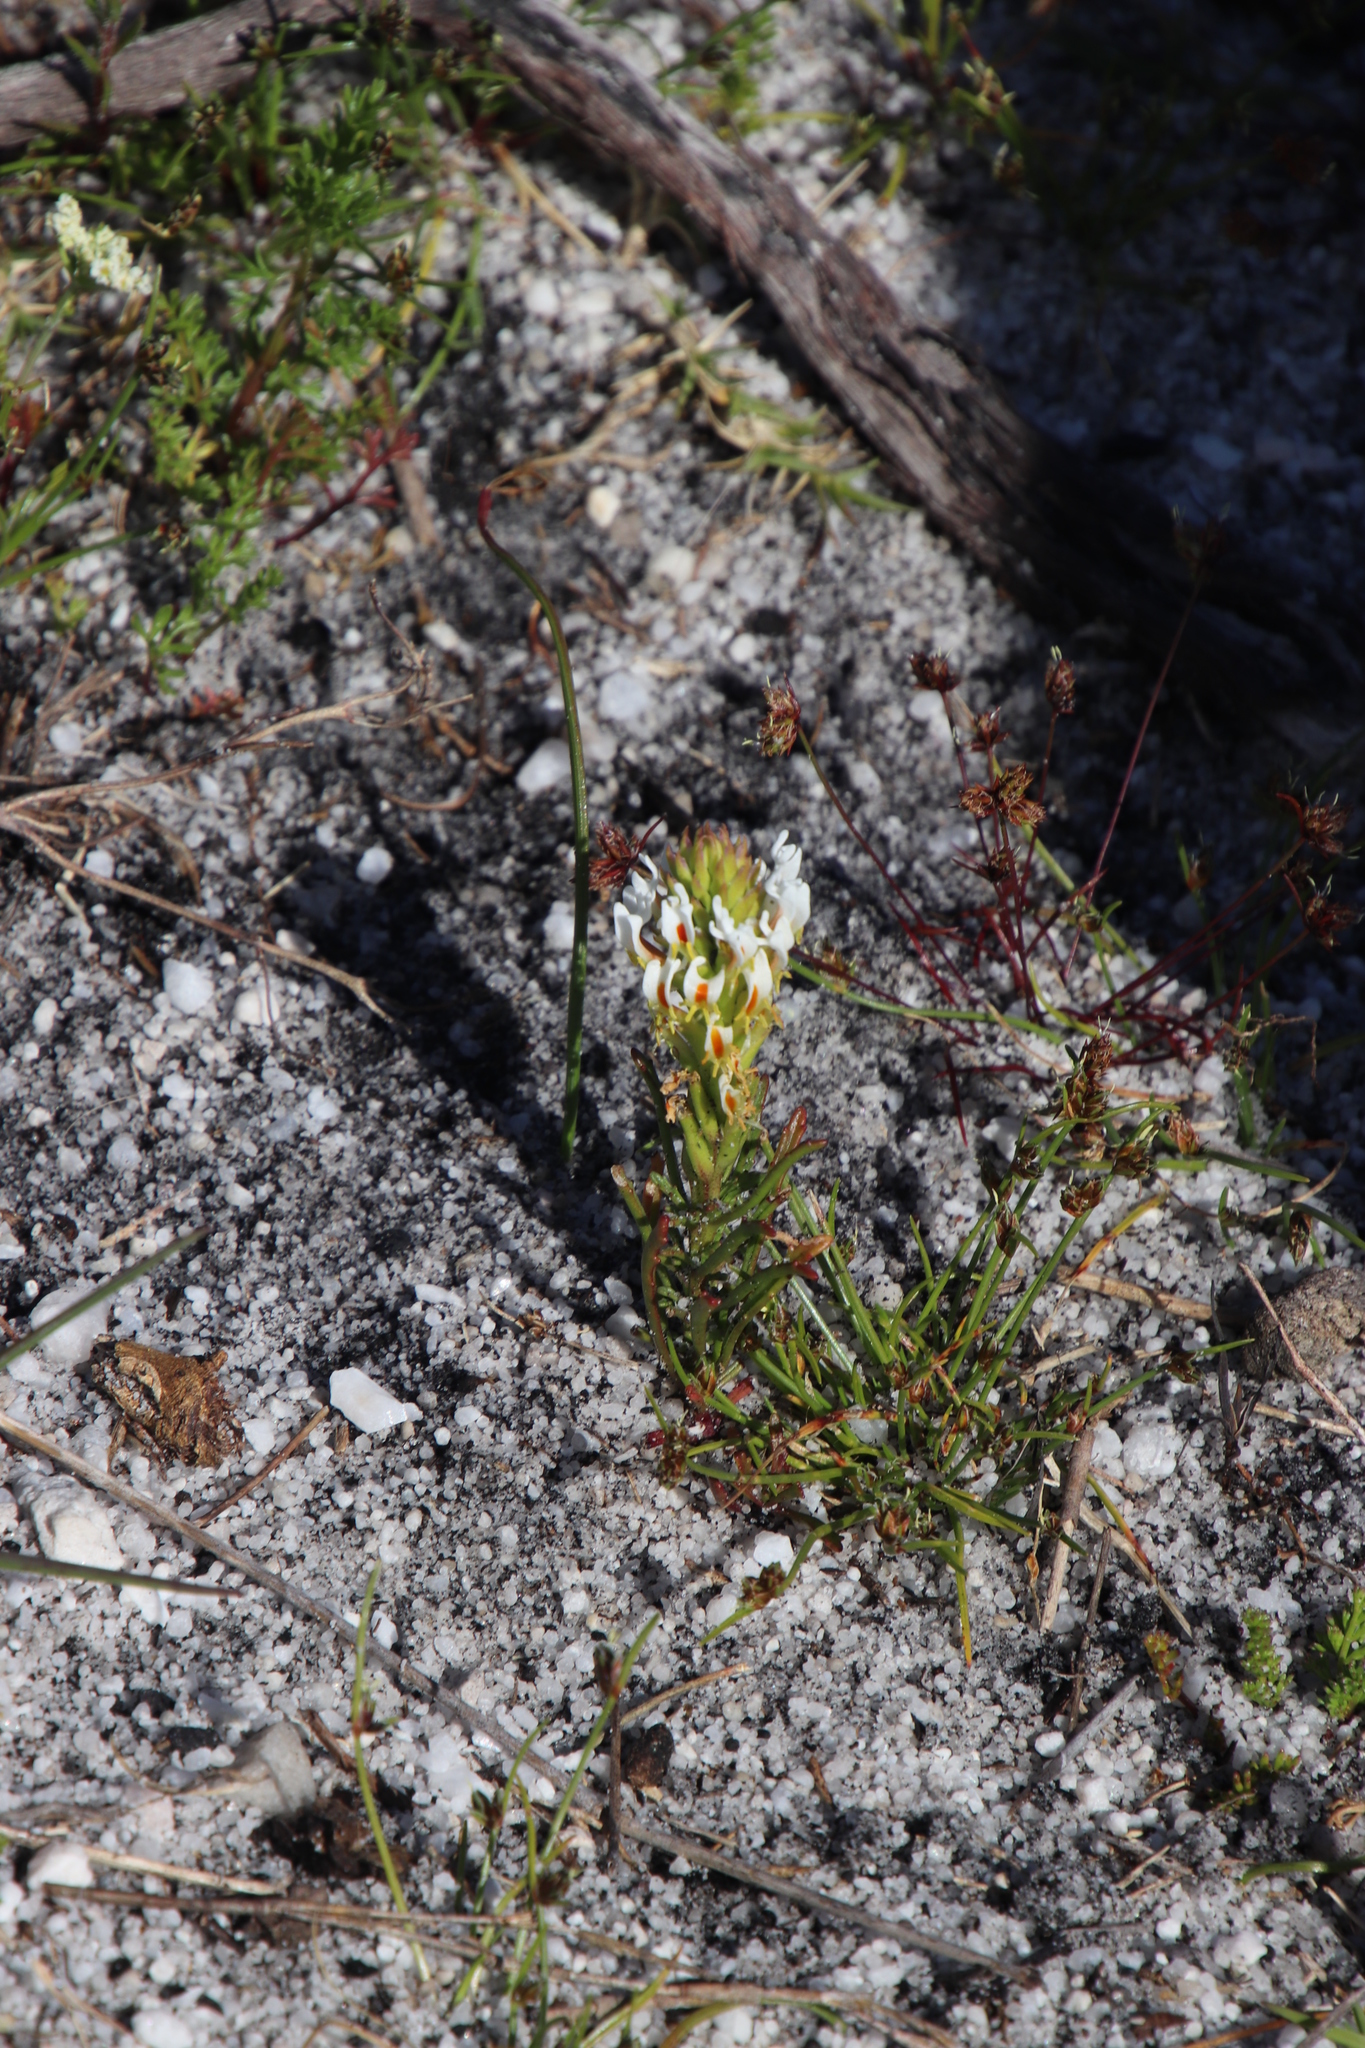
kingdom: Plantae
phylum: Tracheophyta
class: Magnoliopsida
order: Lamiales
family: Scrophulariaceae
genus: Hebenstretia
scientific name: Hebenstretia repens
